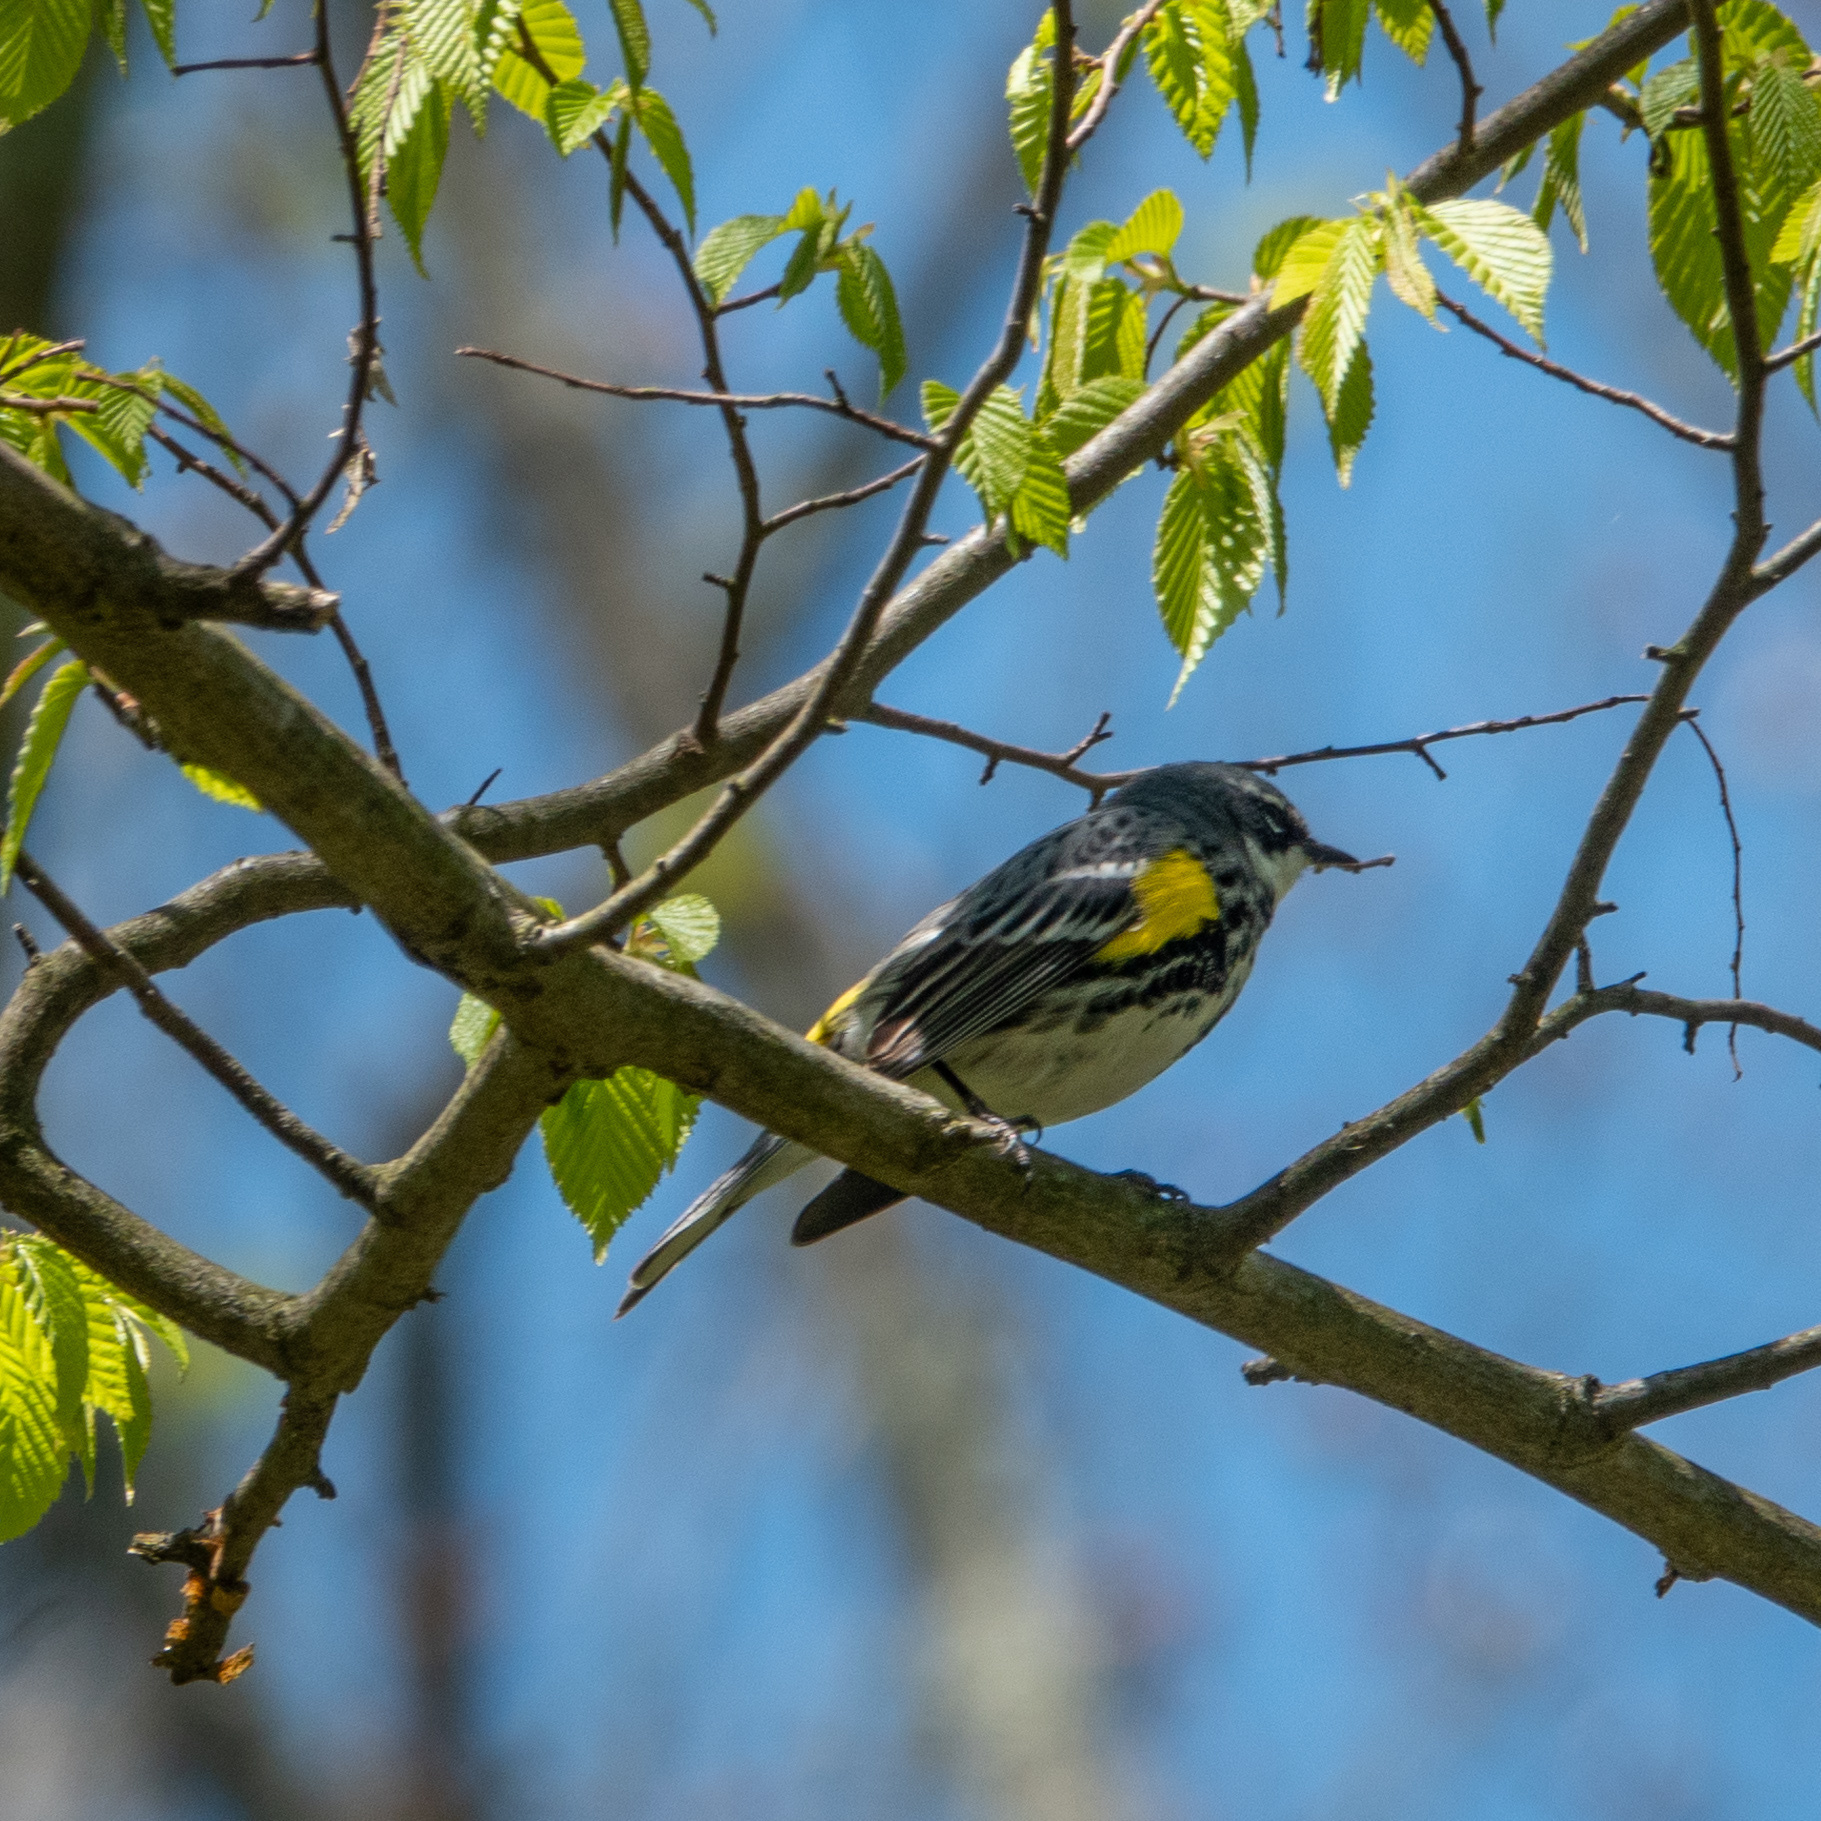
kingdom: Animalia
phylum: Chordata
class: Aves
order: Passeriformes
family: Parulidae
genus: Setophaga
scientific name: Setophaga coronata
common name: Myrtle warbler
